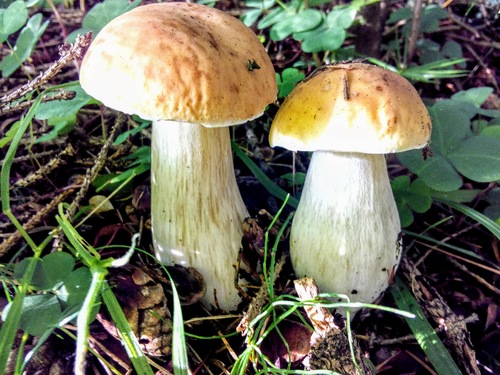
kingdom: Fungi
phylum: Basidiomycota
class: Agaricomycetes
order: Boletales
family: Boletaceae
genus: Boletus
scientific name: Boletus edulis
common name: Cep
